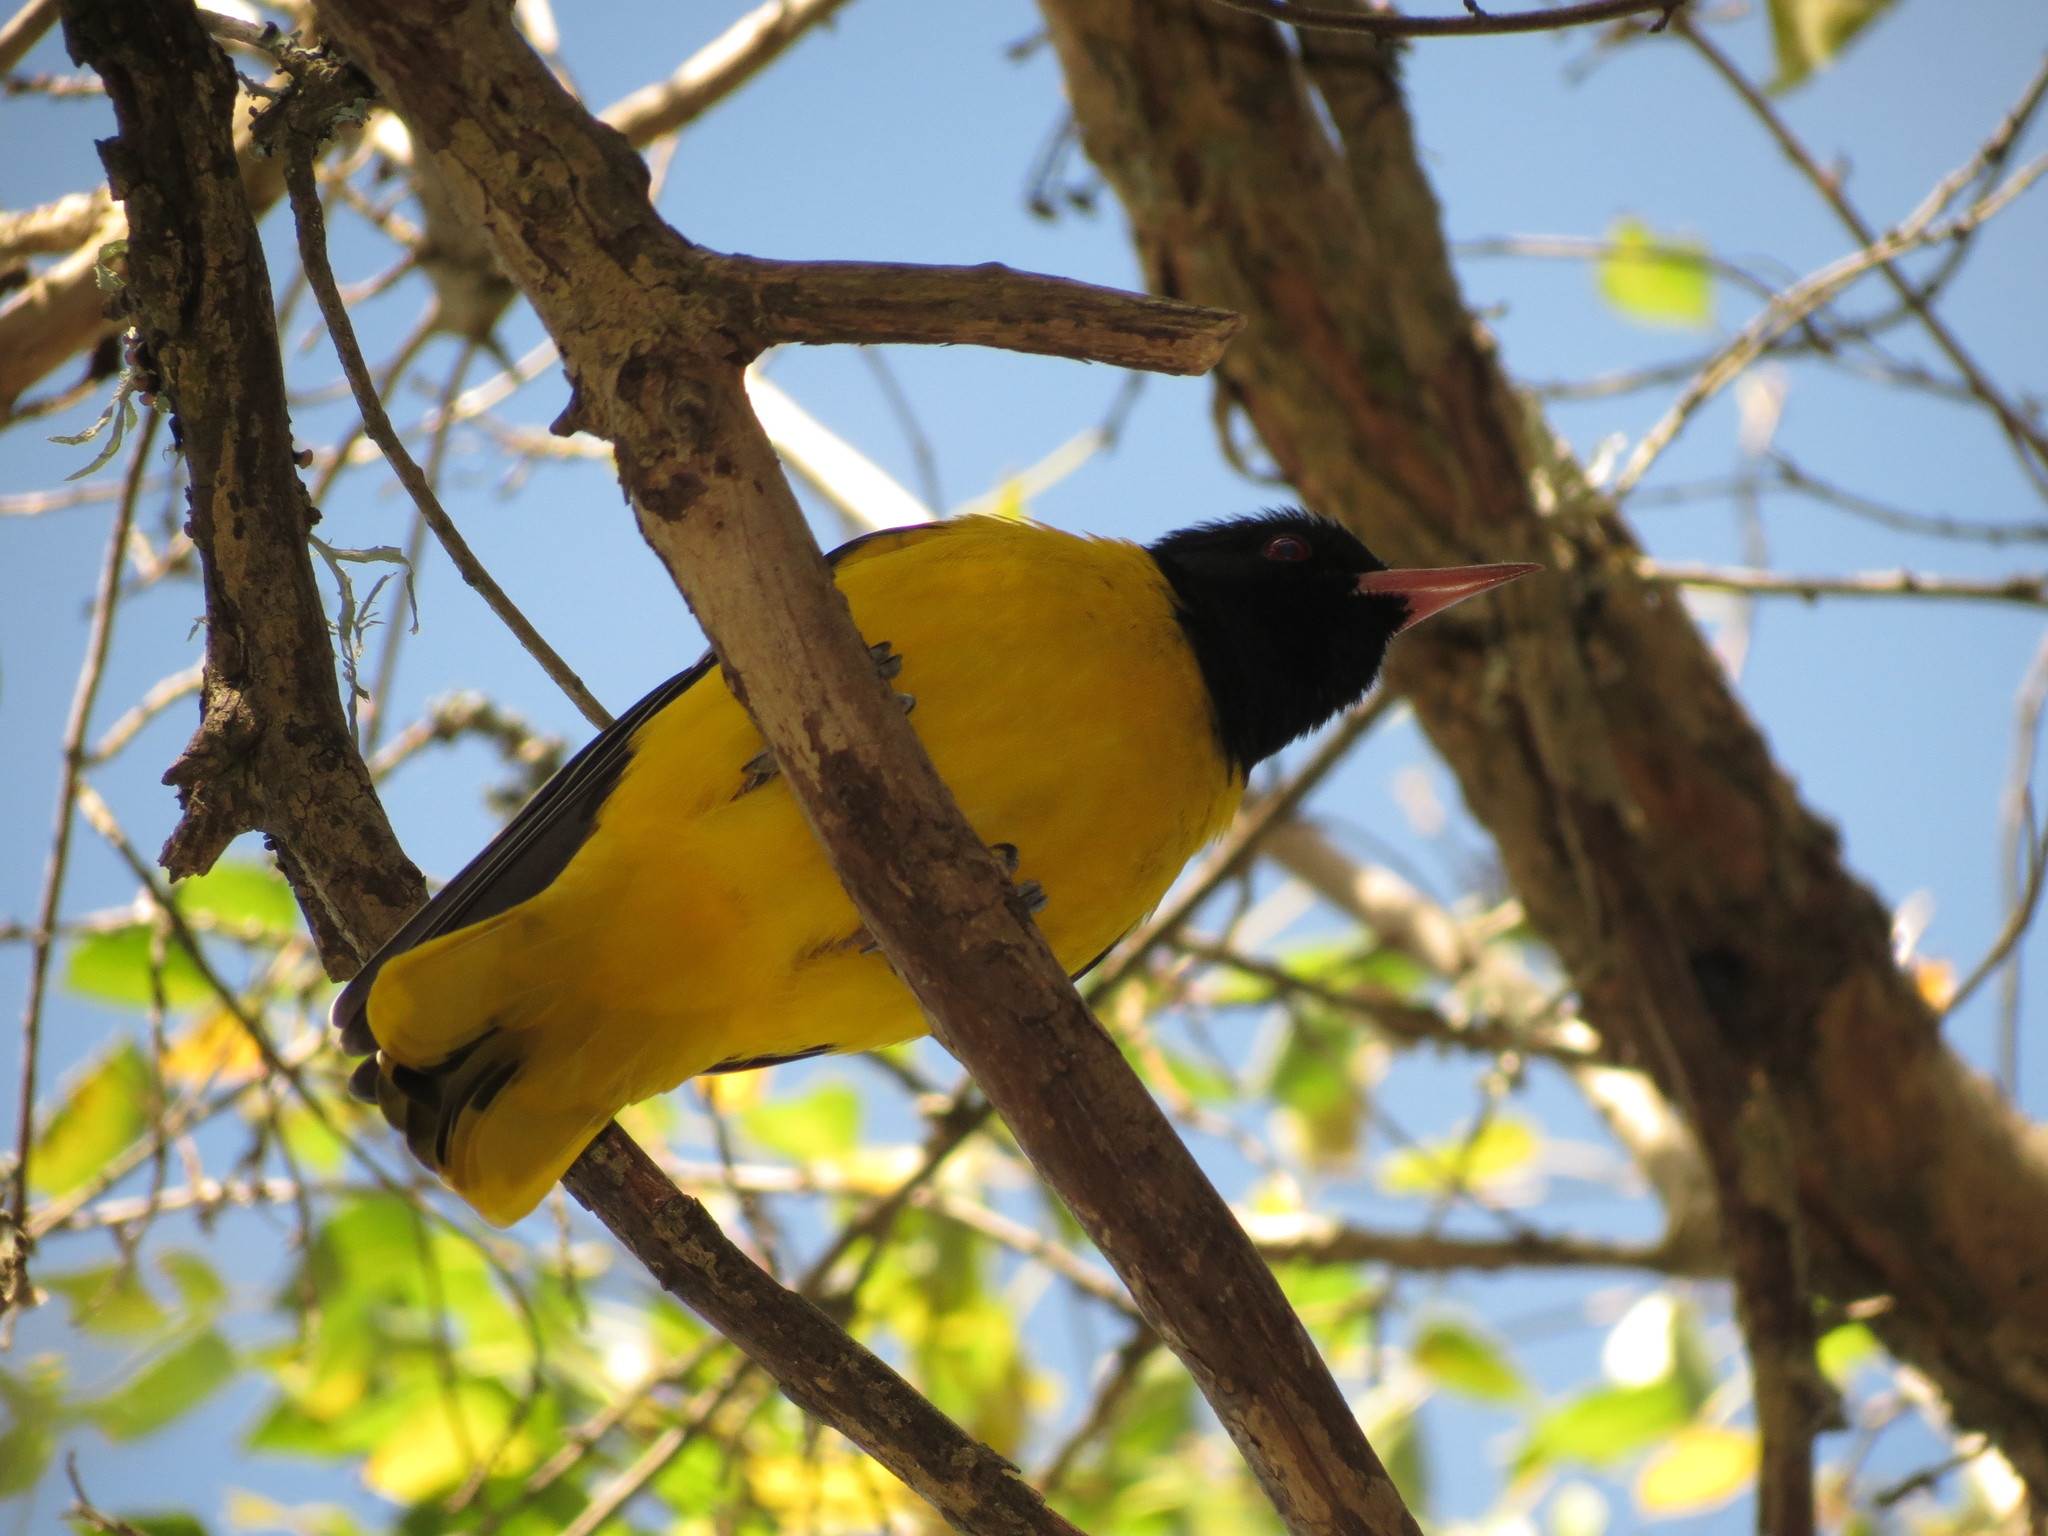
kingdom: Animalia
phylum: Chordata
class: Aves
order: Passeriformes
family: Oriolidae
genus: Oriolus
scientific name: Oriolus larvatus
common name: Black-headed oriole
